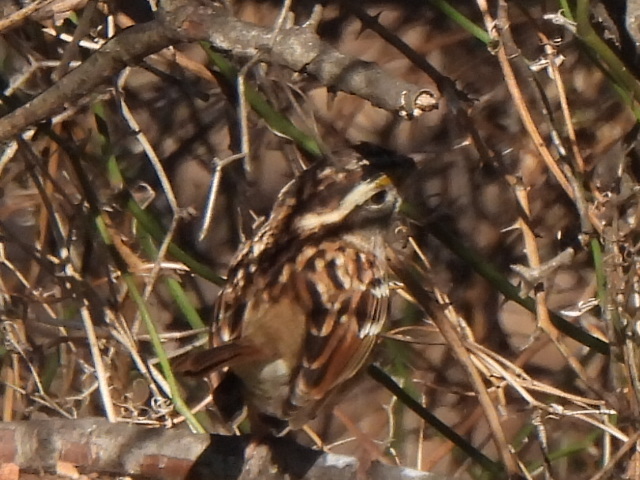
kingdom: Animalia
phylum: Chordata
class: Aves
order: Passeriformes
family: Passerellidae
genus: Zonotrichia
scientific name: Zonotrichia albicollis
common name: White-throated sparrow
